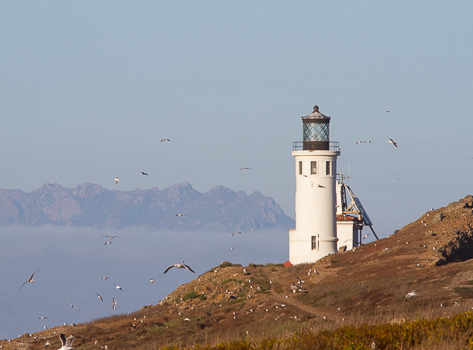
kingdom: Animalia
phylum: Chordata
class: Aves
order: Charadriiformes
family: Laridae
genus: Larus
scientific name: Larus occidentalis
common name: Western gull
